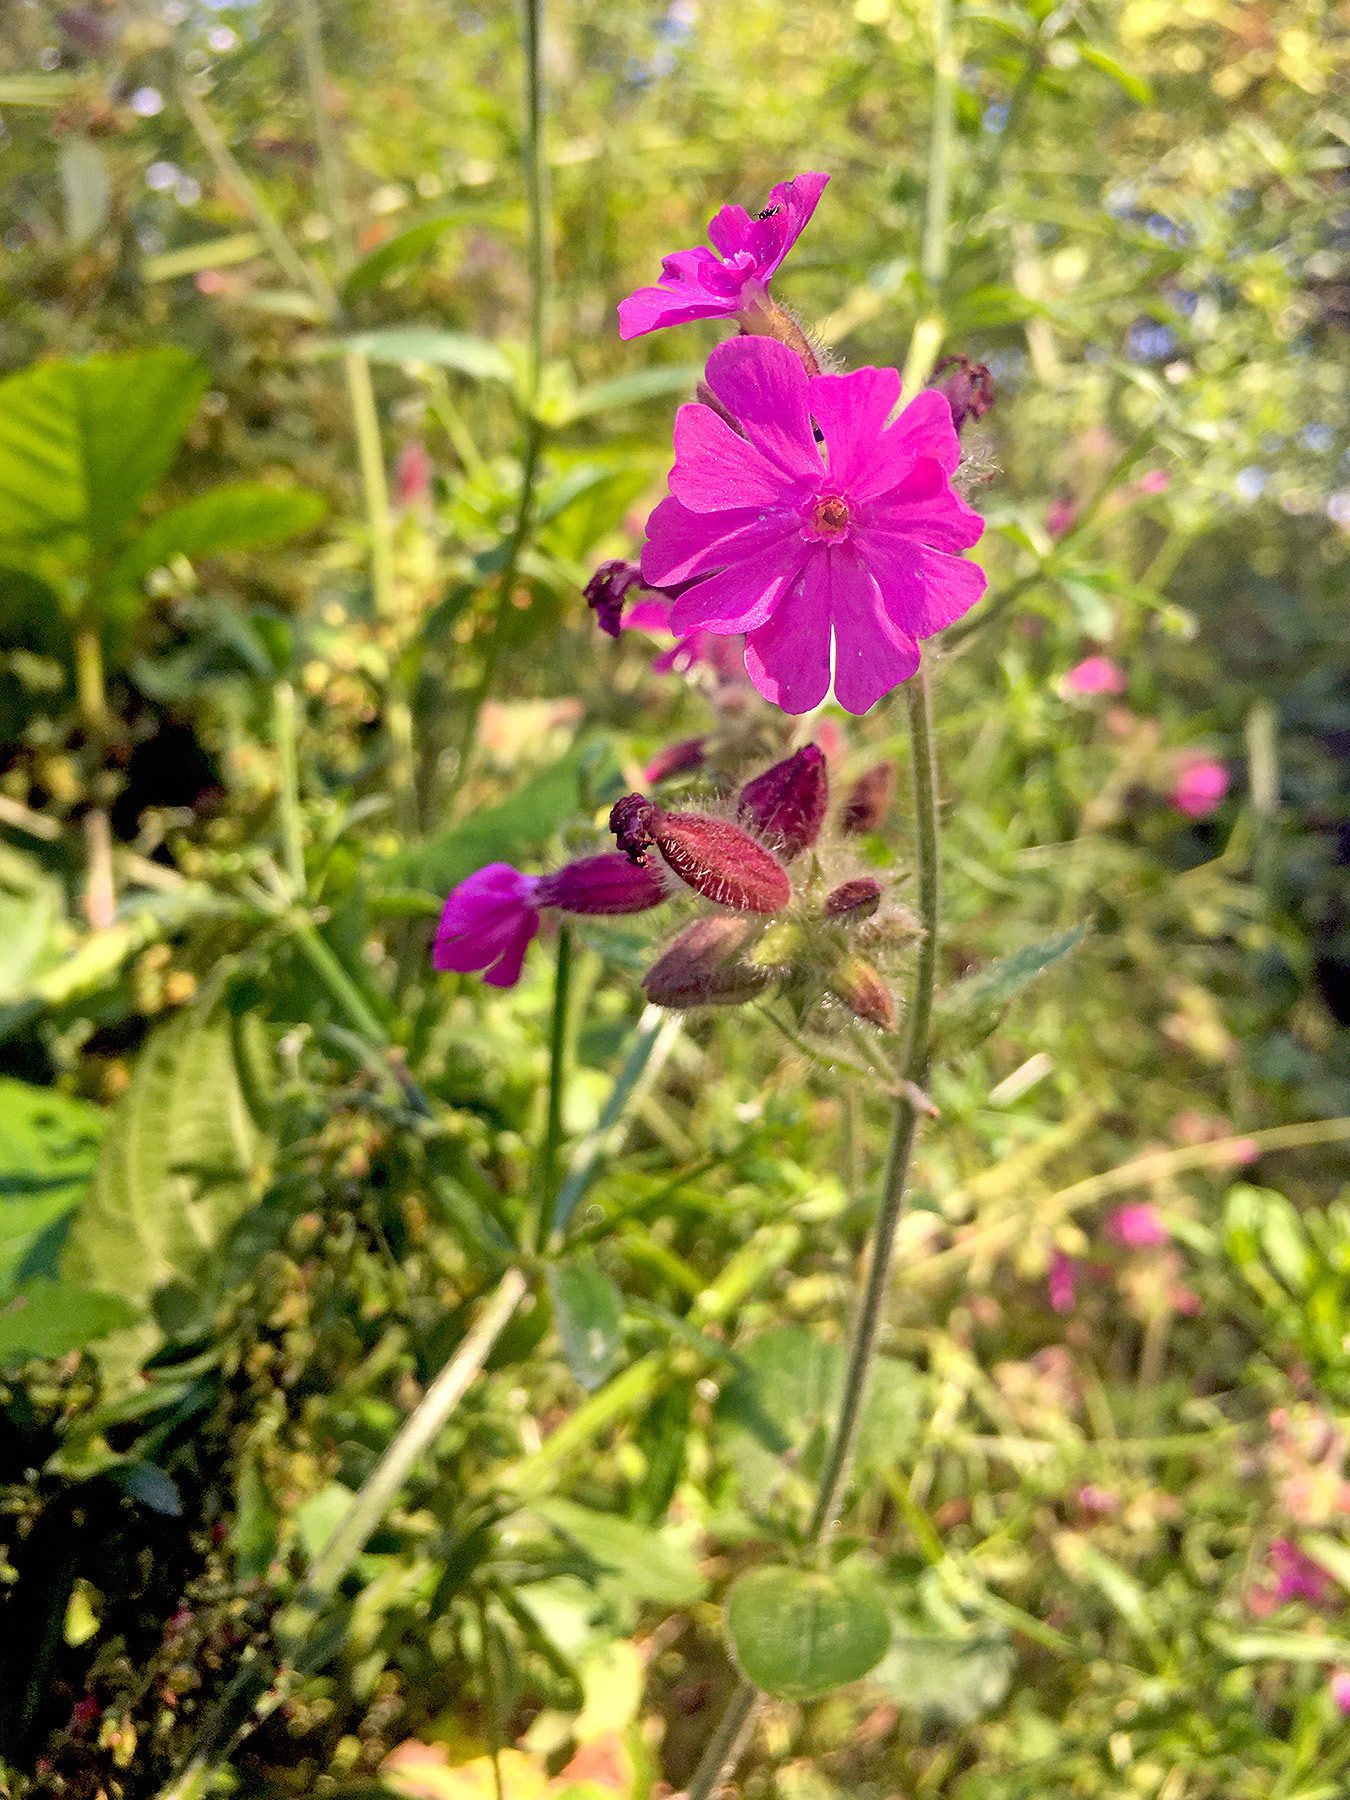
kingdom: Plantae
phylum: Tracheophyta
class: Magnoliopsida
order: Caryophyllales
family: Caryophyllaceae
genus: Silene
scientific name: Silene dioica
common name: Red campion
